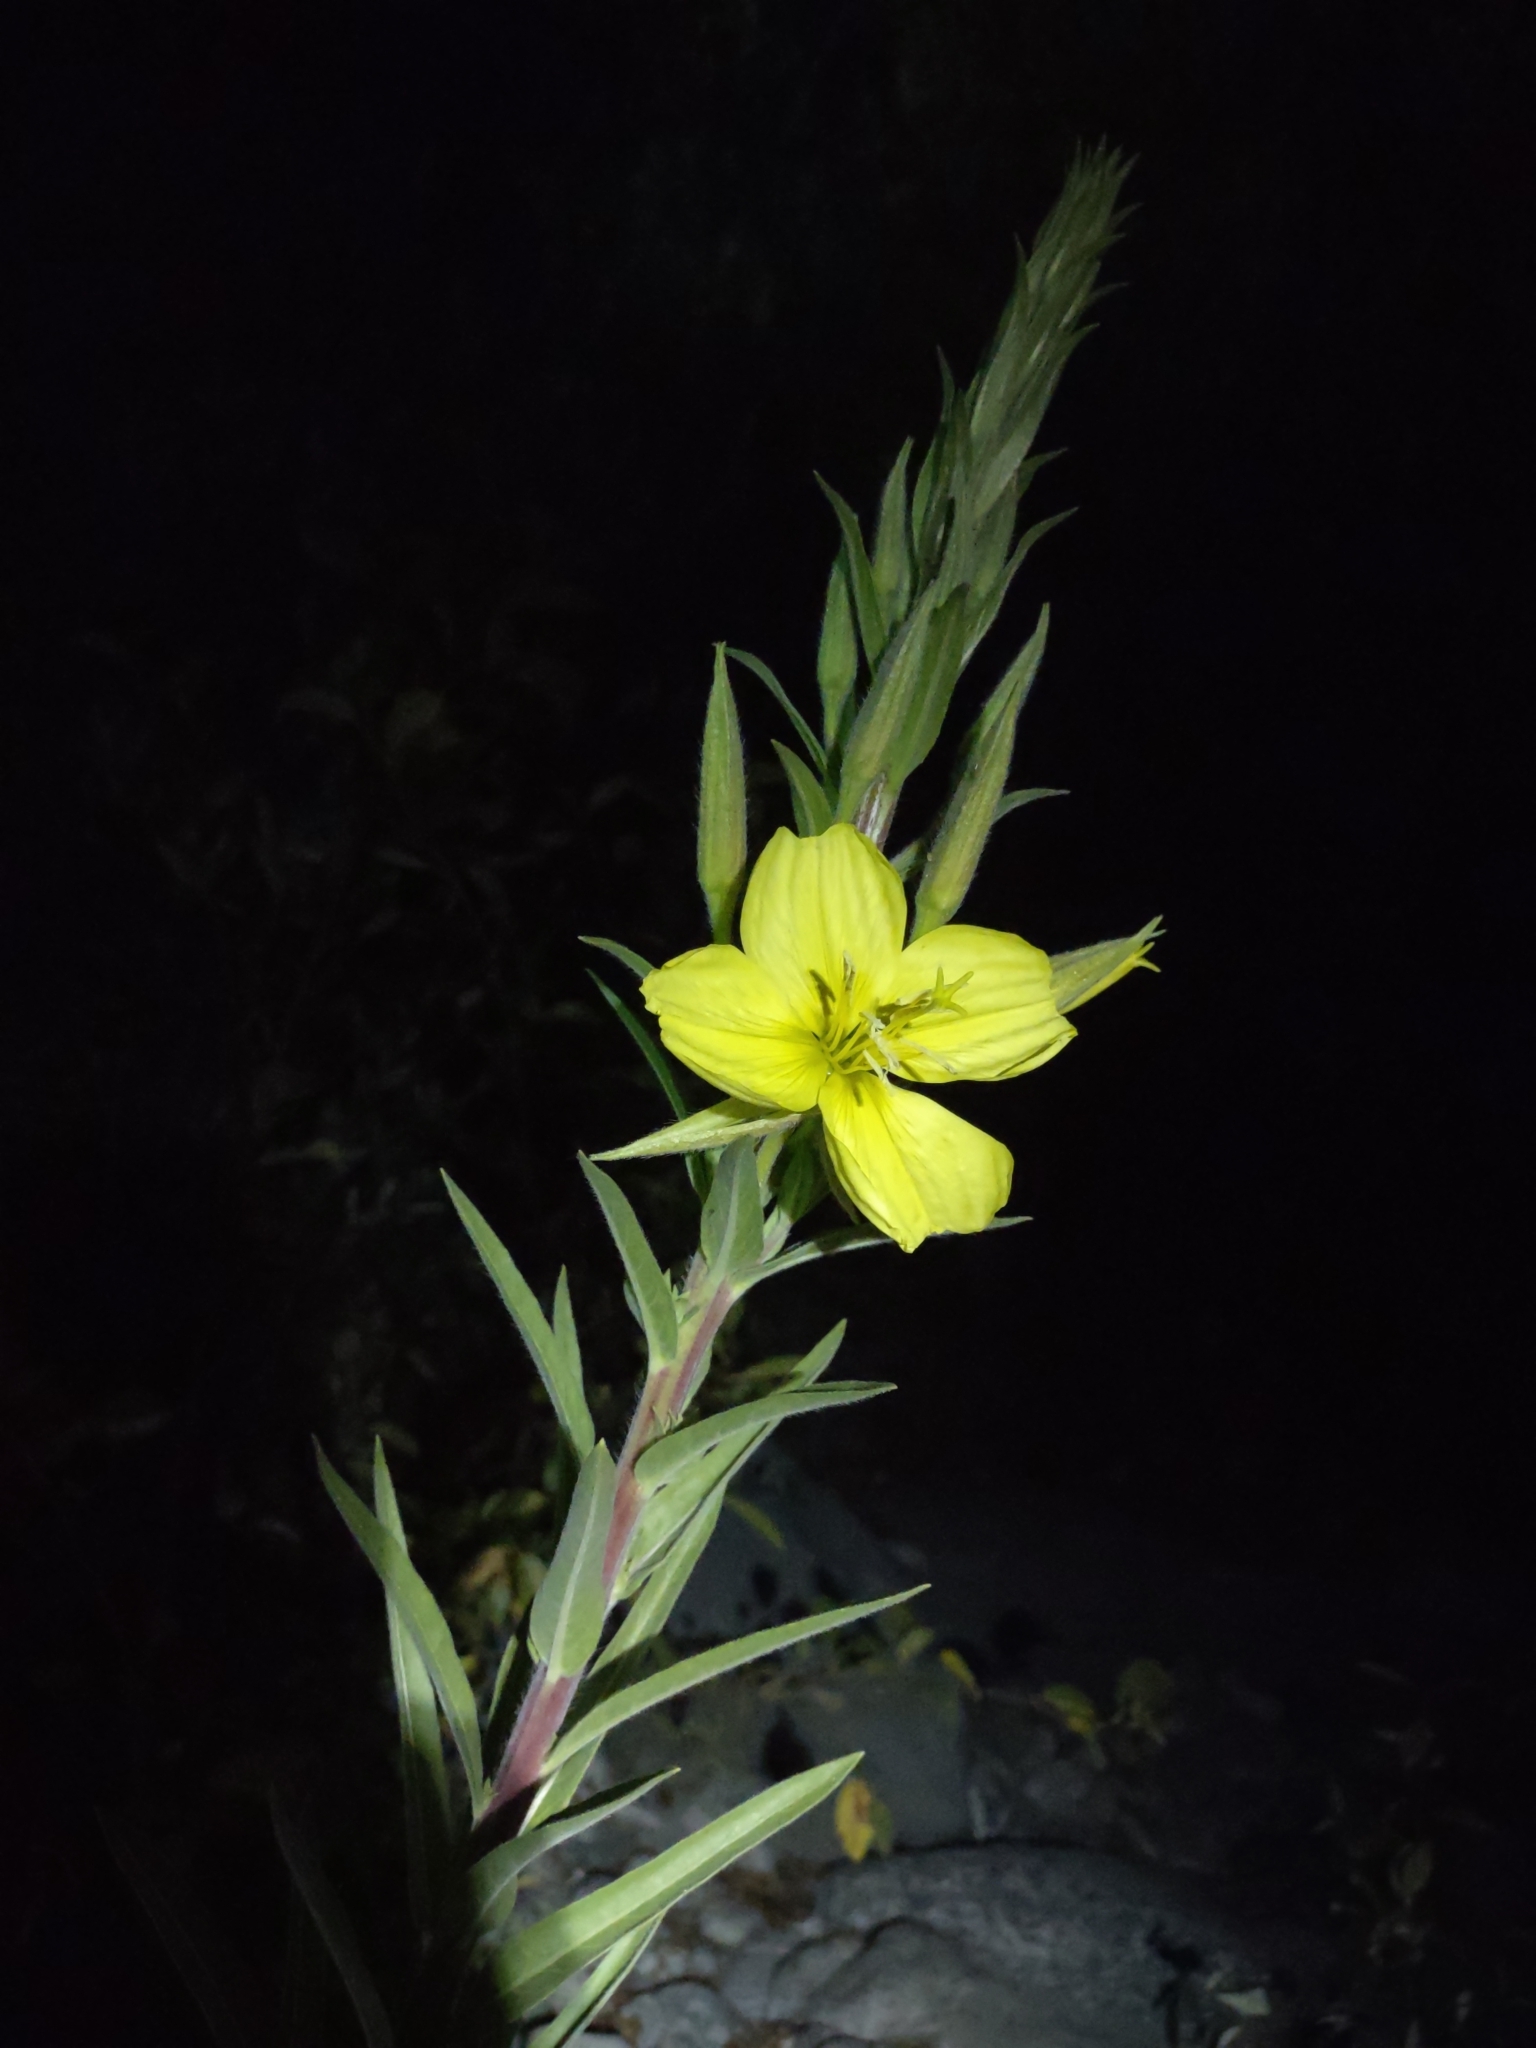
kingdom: Plantae
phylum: Tracheophyta
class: Magnoliopsida
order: Myrtales
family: Onagraceae
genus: Oenothera
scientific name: Oenothera elata
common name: Hooker's evening-primrose
